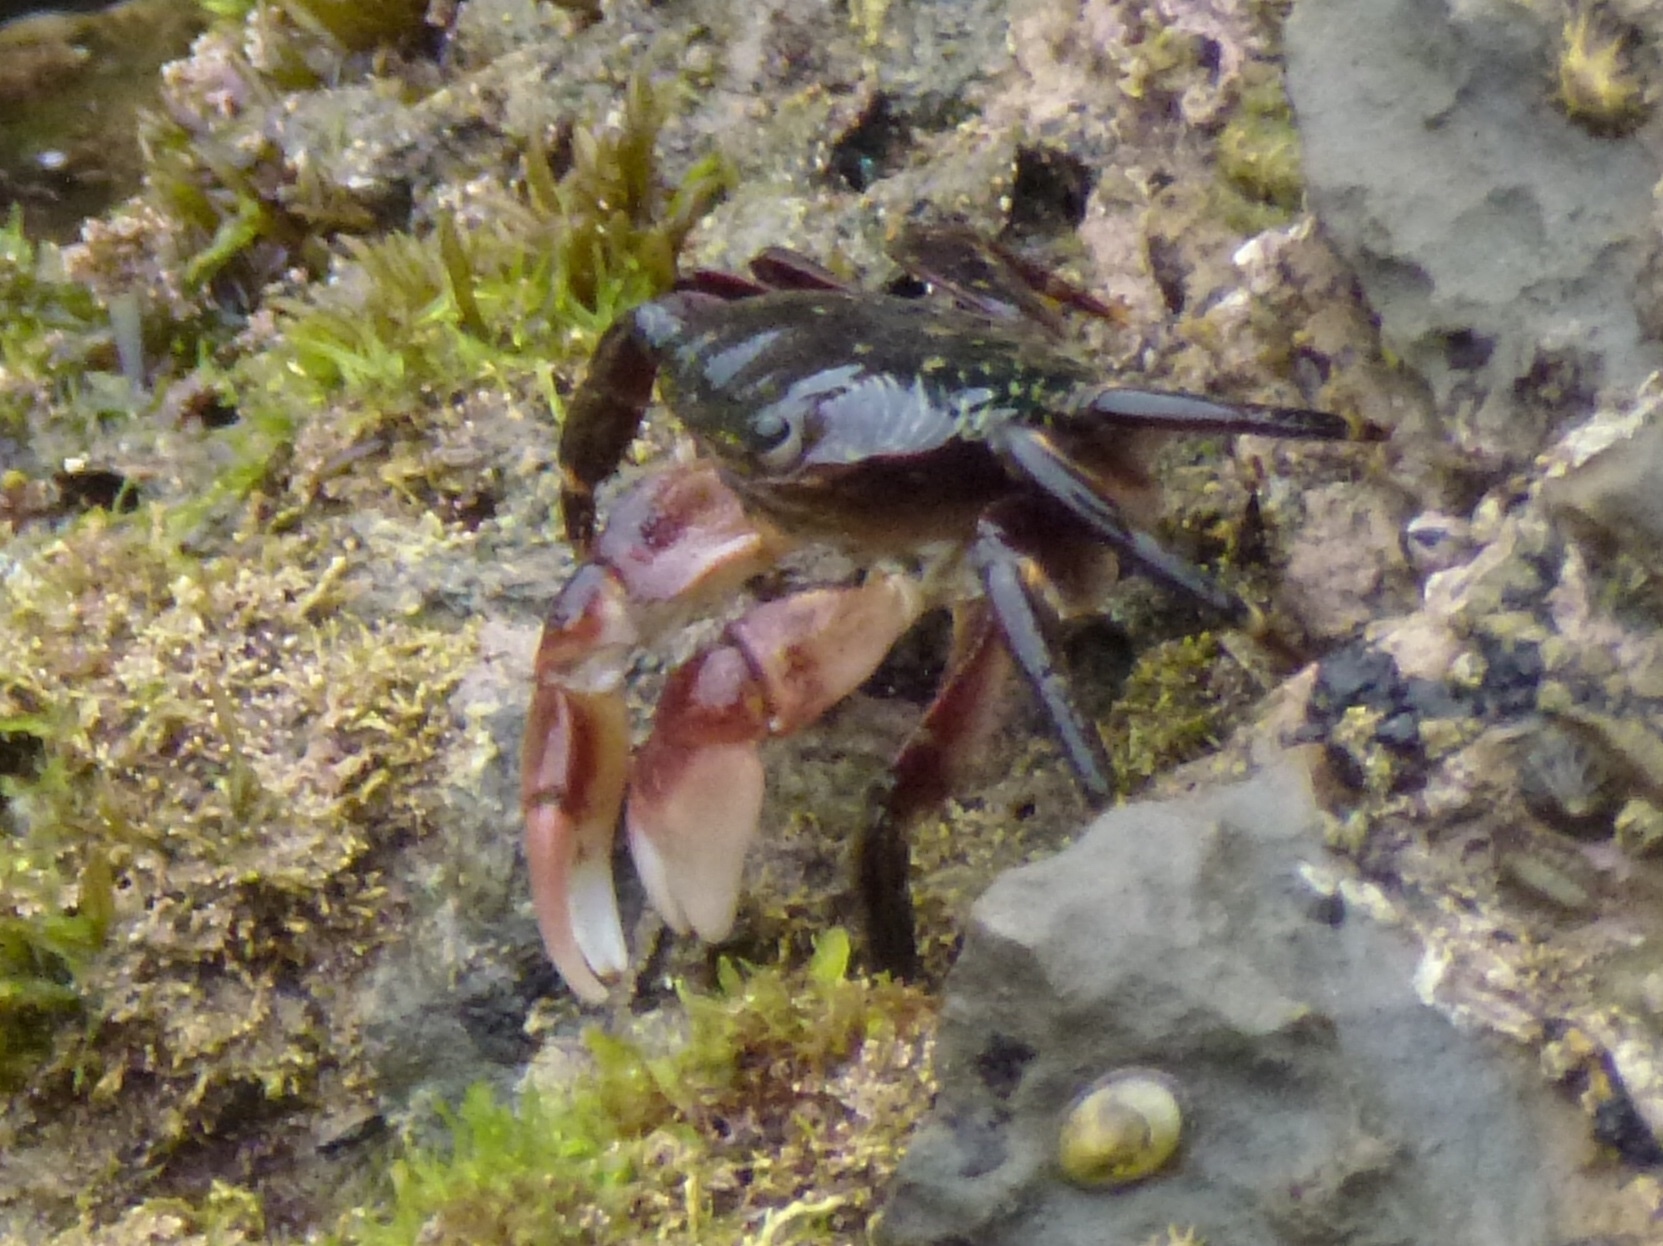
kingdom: Animalia
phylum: Arthropoda
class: Malacostraca
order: Decapoda
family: Grapsidae
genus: Pachygrapsus
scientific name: Pachygrapsus crassipes
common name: Striped shore crab
